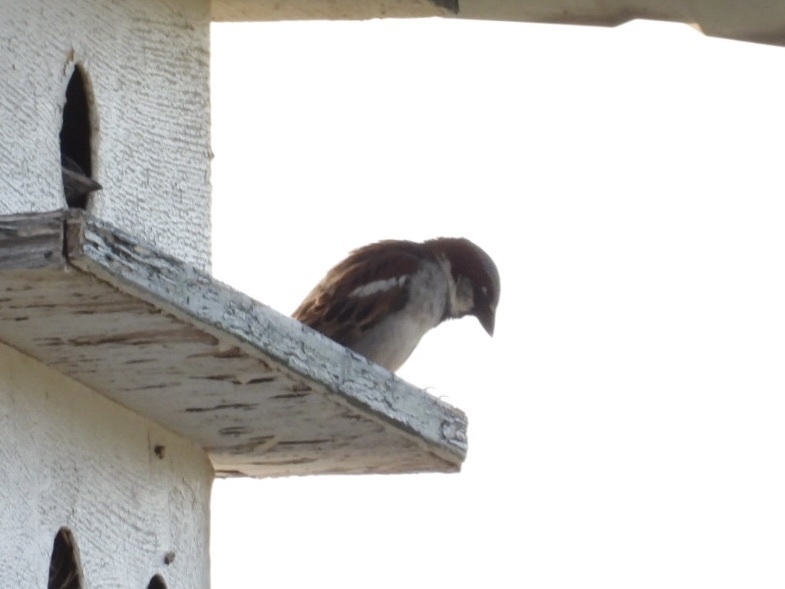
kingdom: Animalia
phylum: Chordata
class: Aves
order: Passeriformes
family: Passeridae
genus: Passer
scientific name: Passer domesticus
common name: House sparrow
